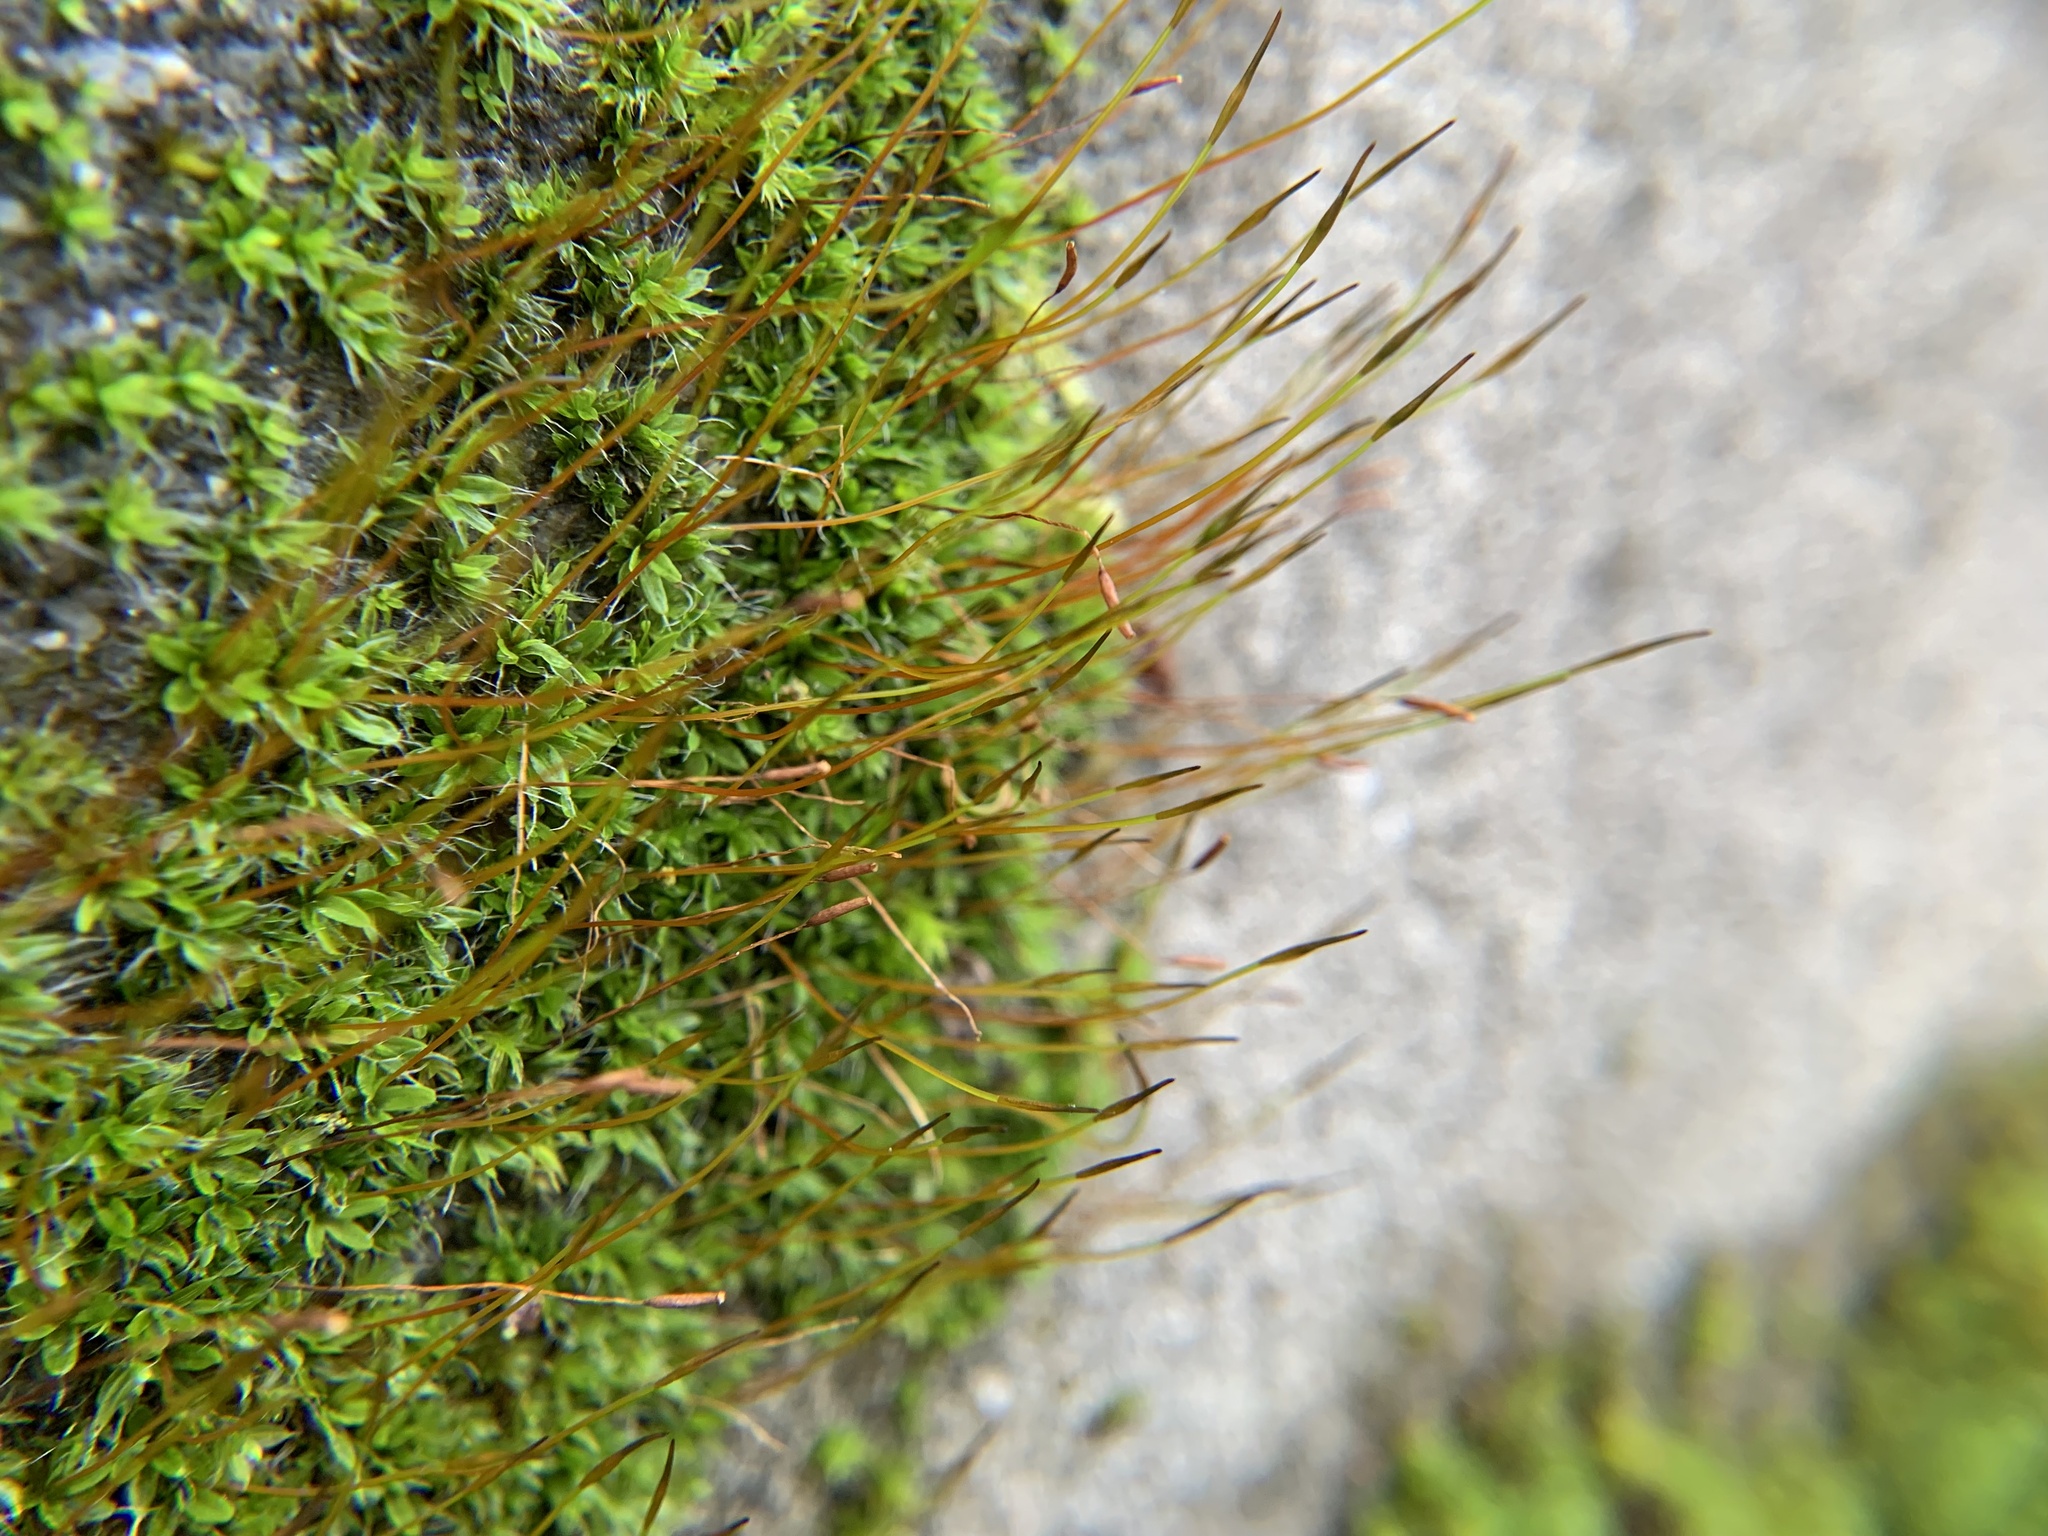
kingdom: Plantae
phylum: Bryophyta
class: Bryopsida
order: Pottiales
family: Pottiaceae
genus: Tortula
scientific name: Tortula muralis
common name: Wall screw-moss
